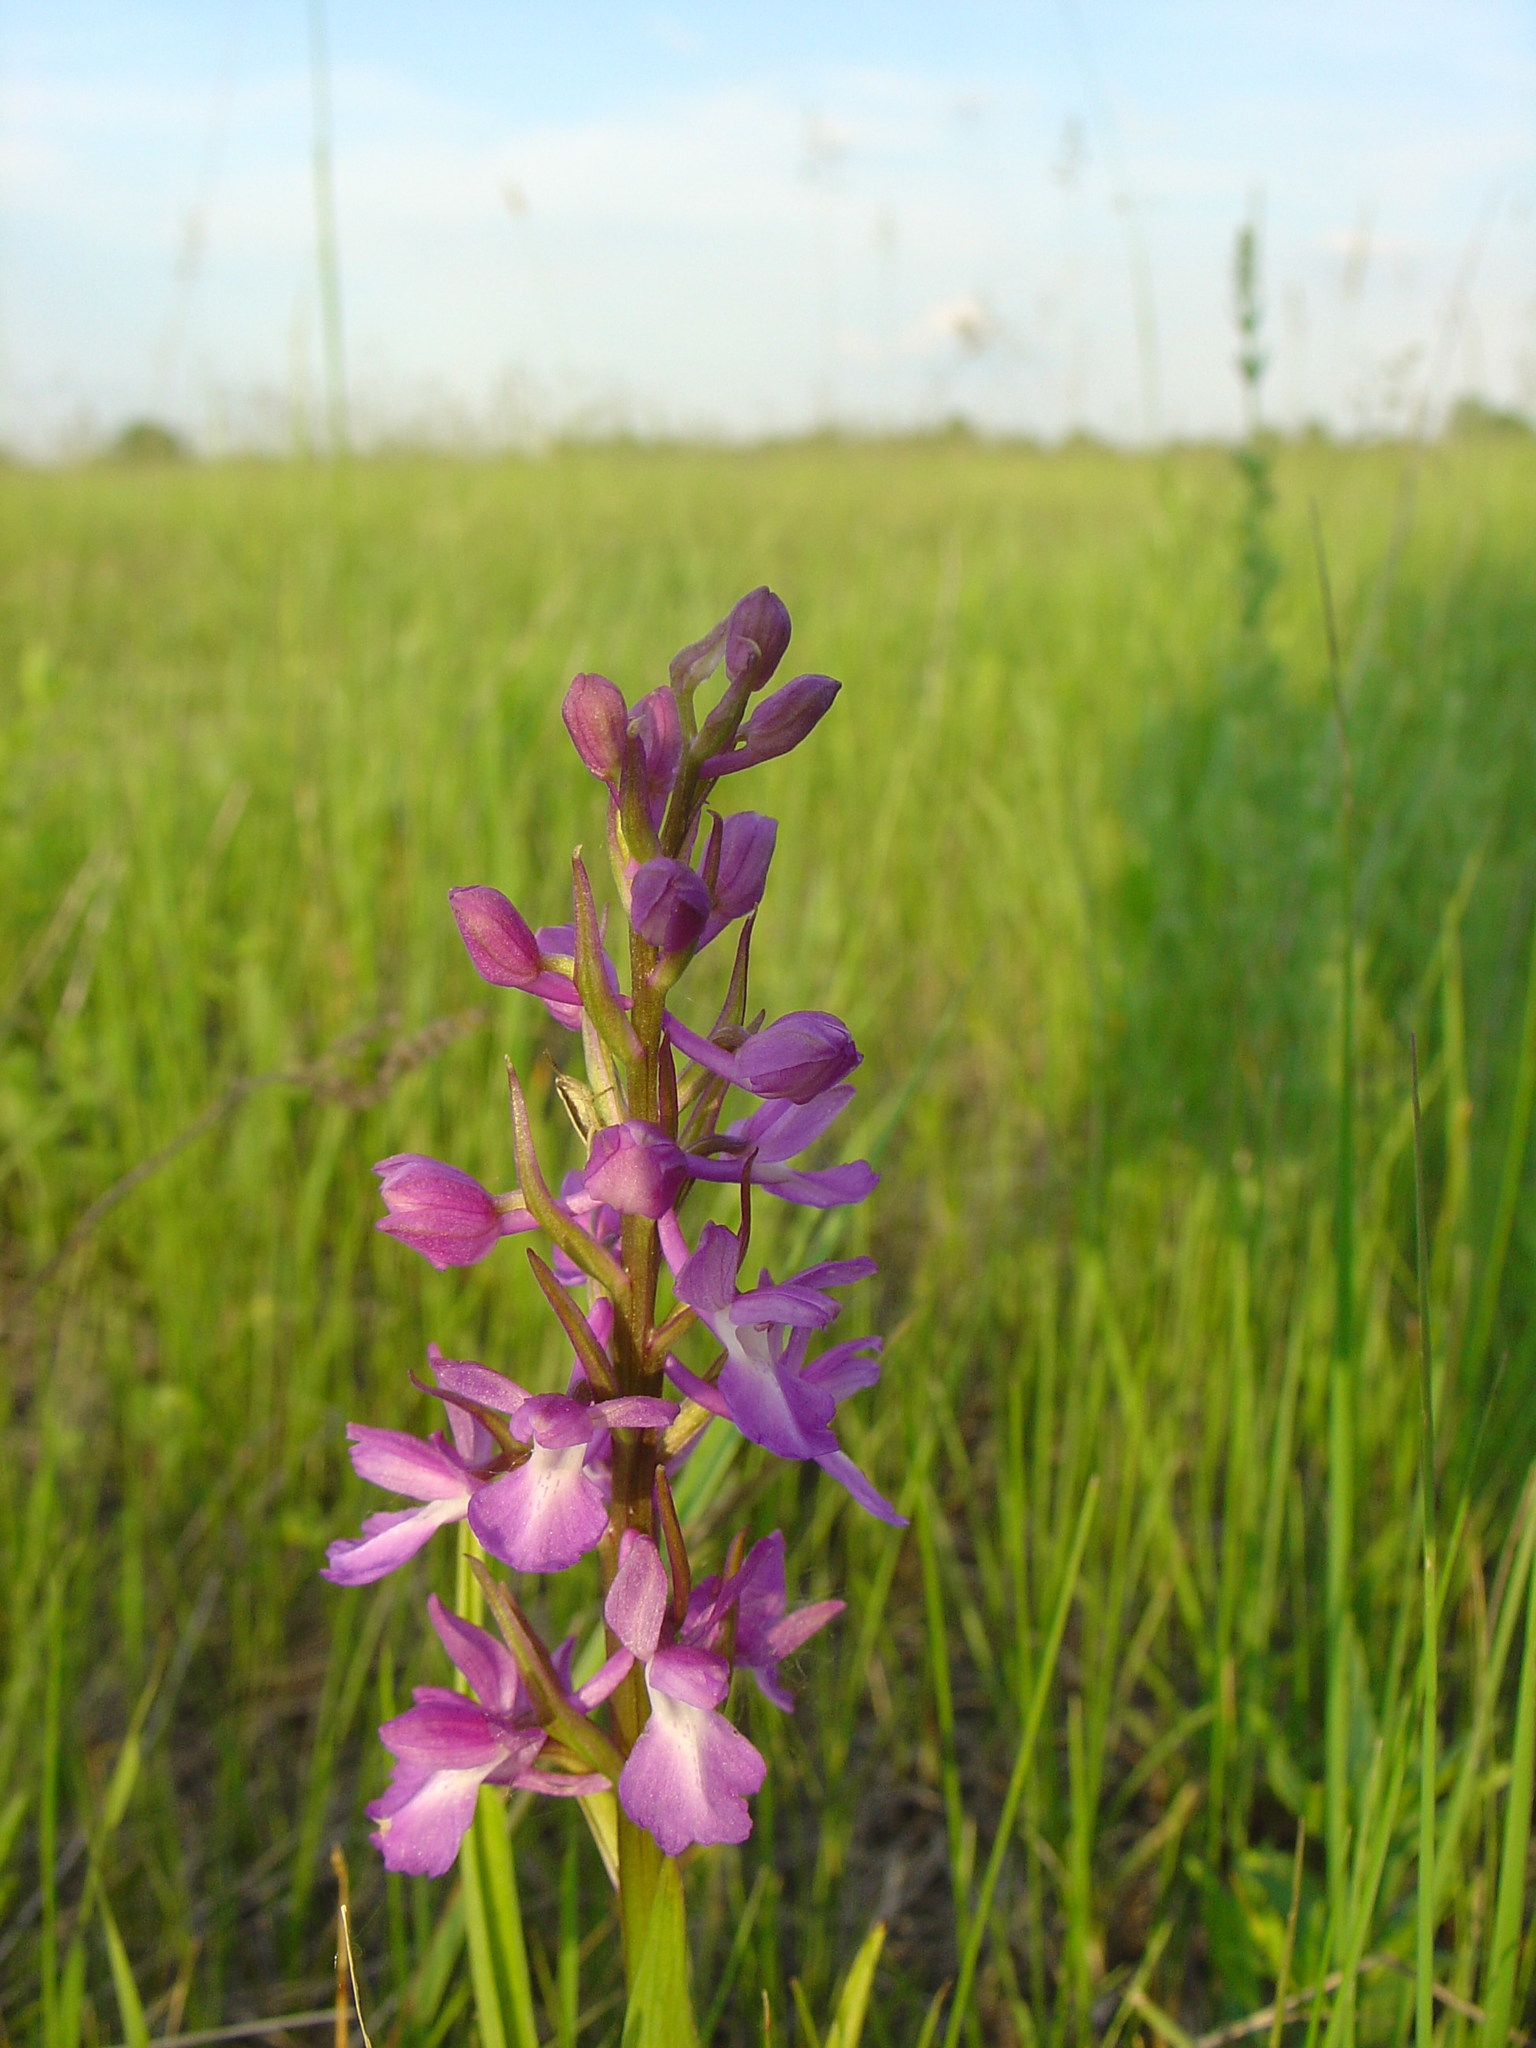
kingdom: Plantae
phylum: Tracheophyta
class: Liliopsida
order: Asparagales
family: Orchidaceae
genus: Anacamptis
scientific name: Anacamptis laxiflora
